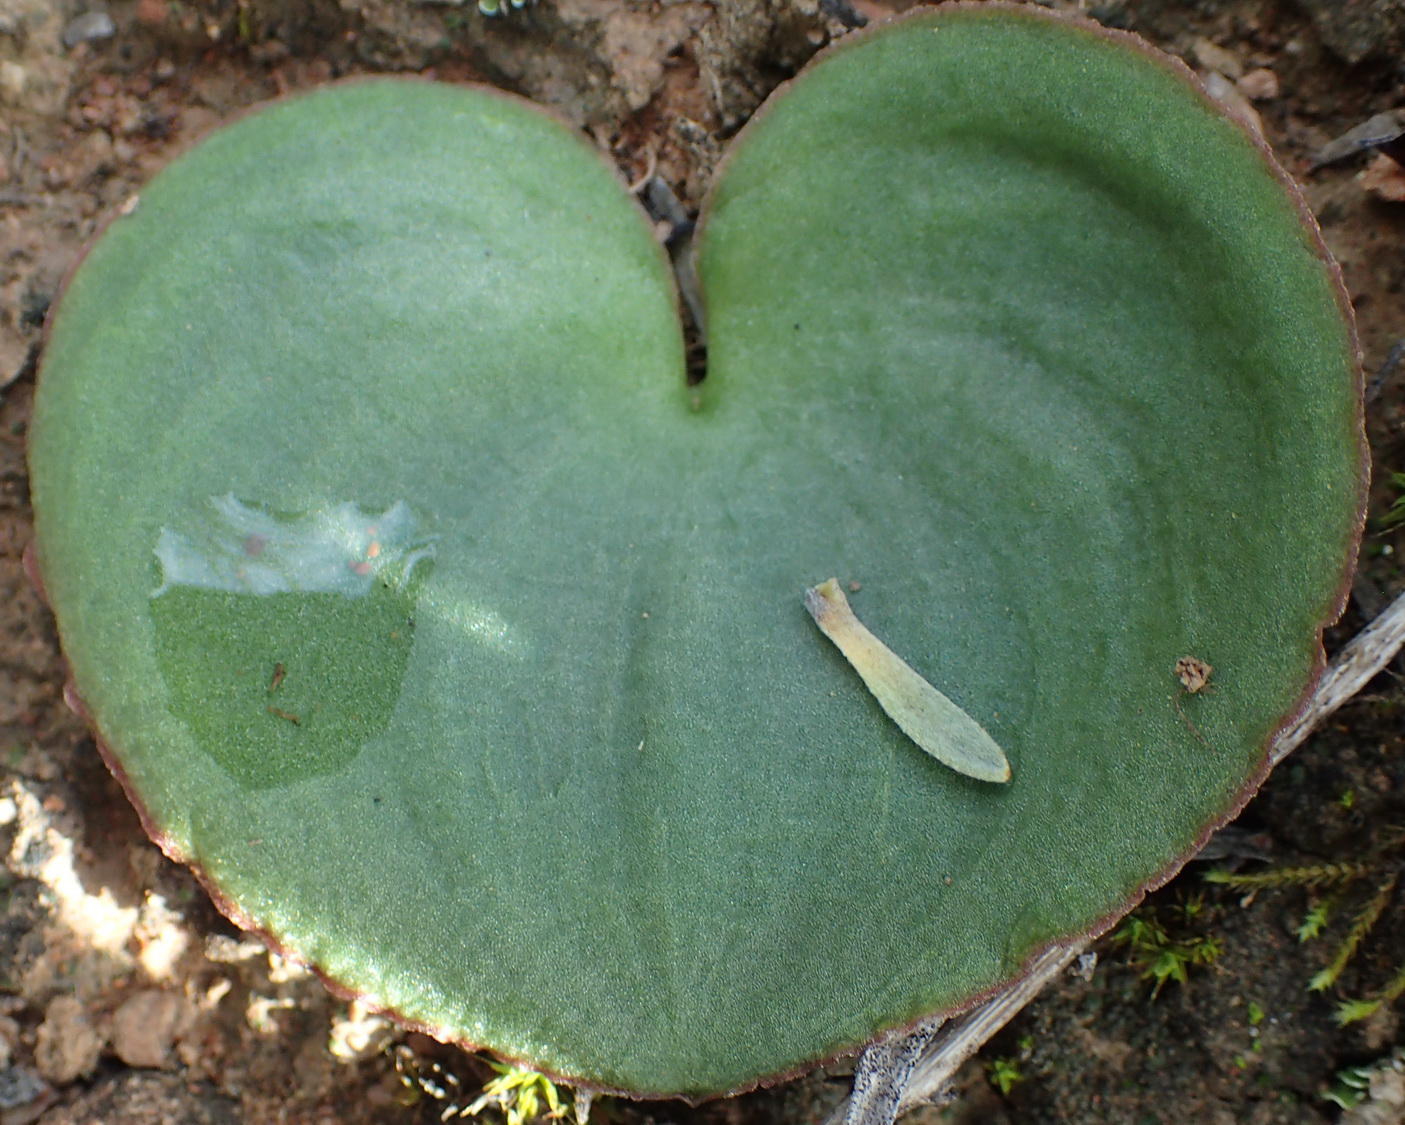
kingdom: Plantae
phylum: Tracheophyta
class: Liliopsida
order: Asparagales
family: Asparagaceae
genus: Eriospermum
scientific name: Eriospermum zeyheri
